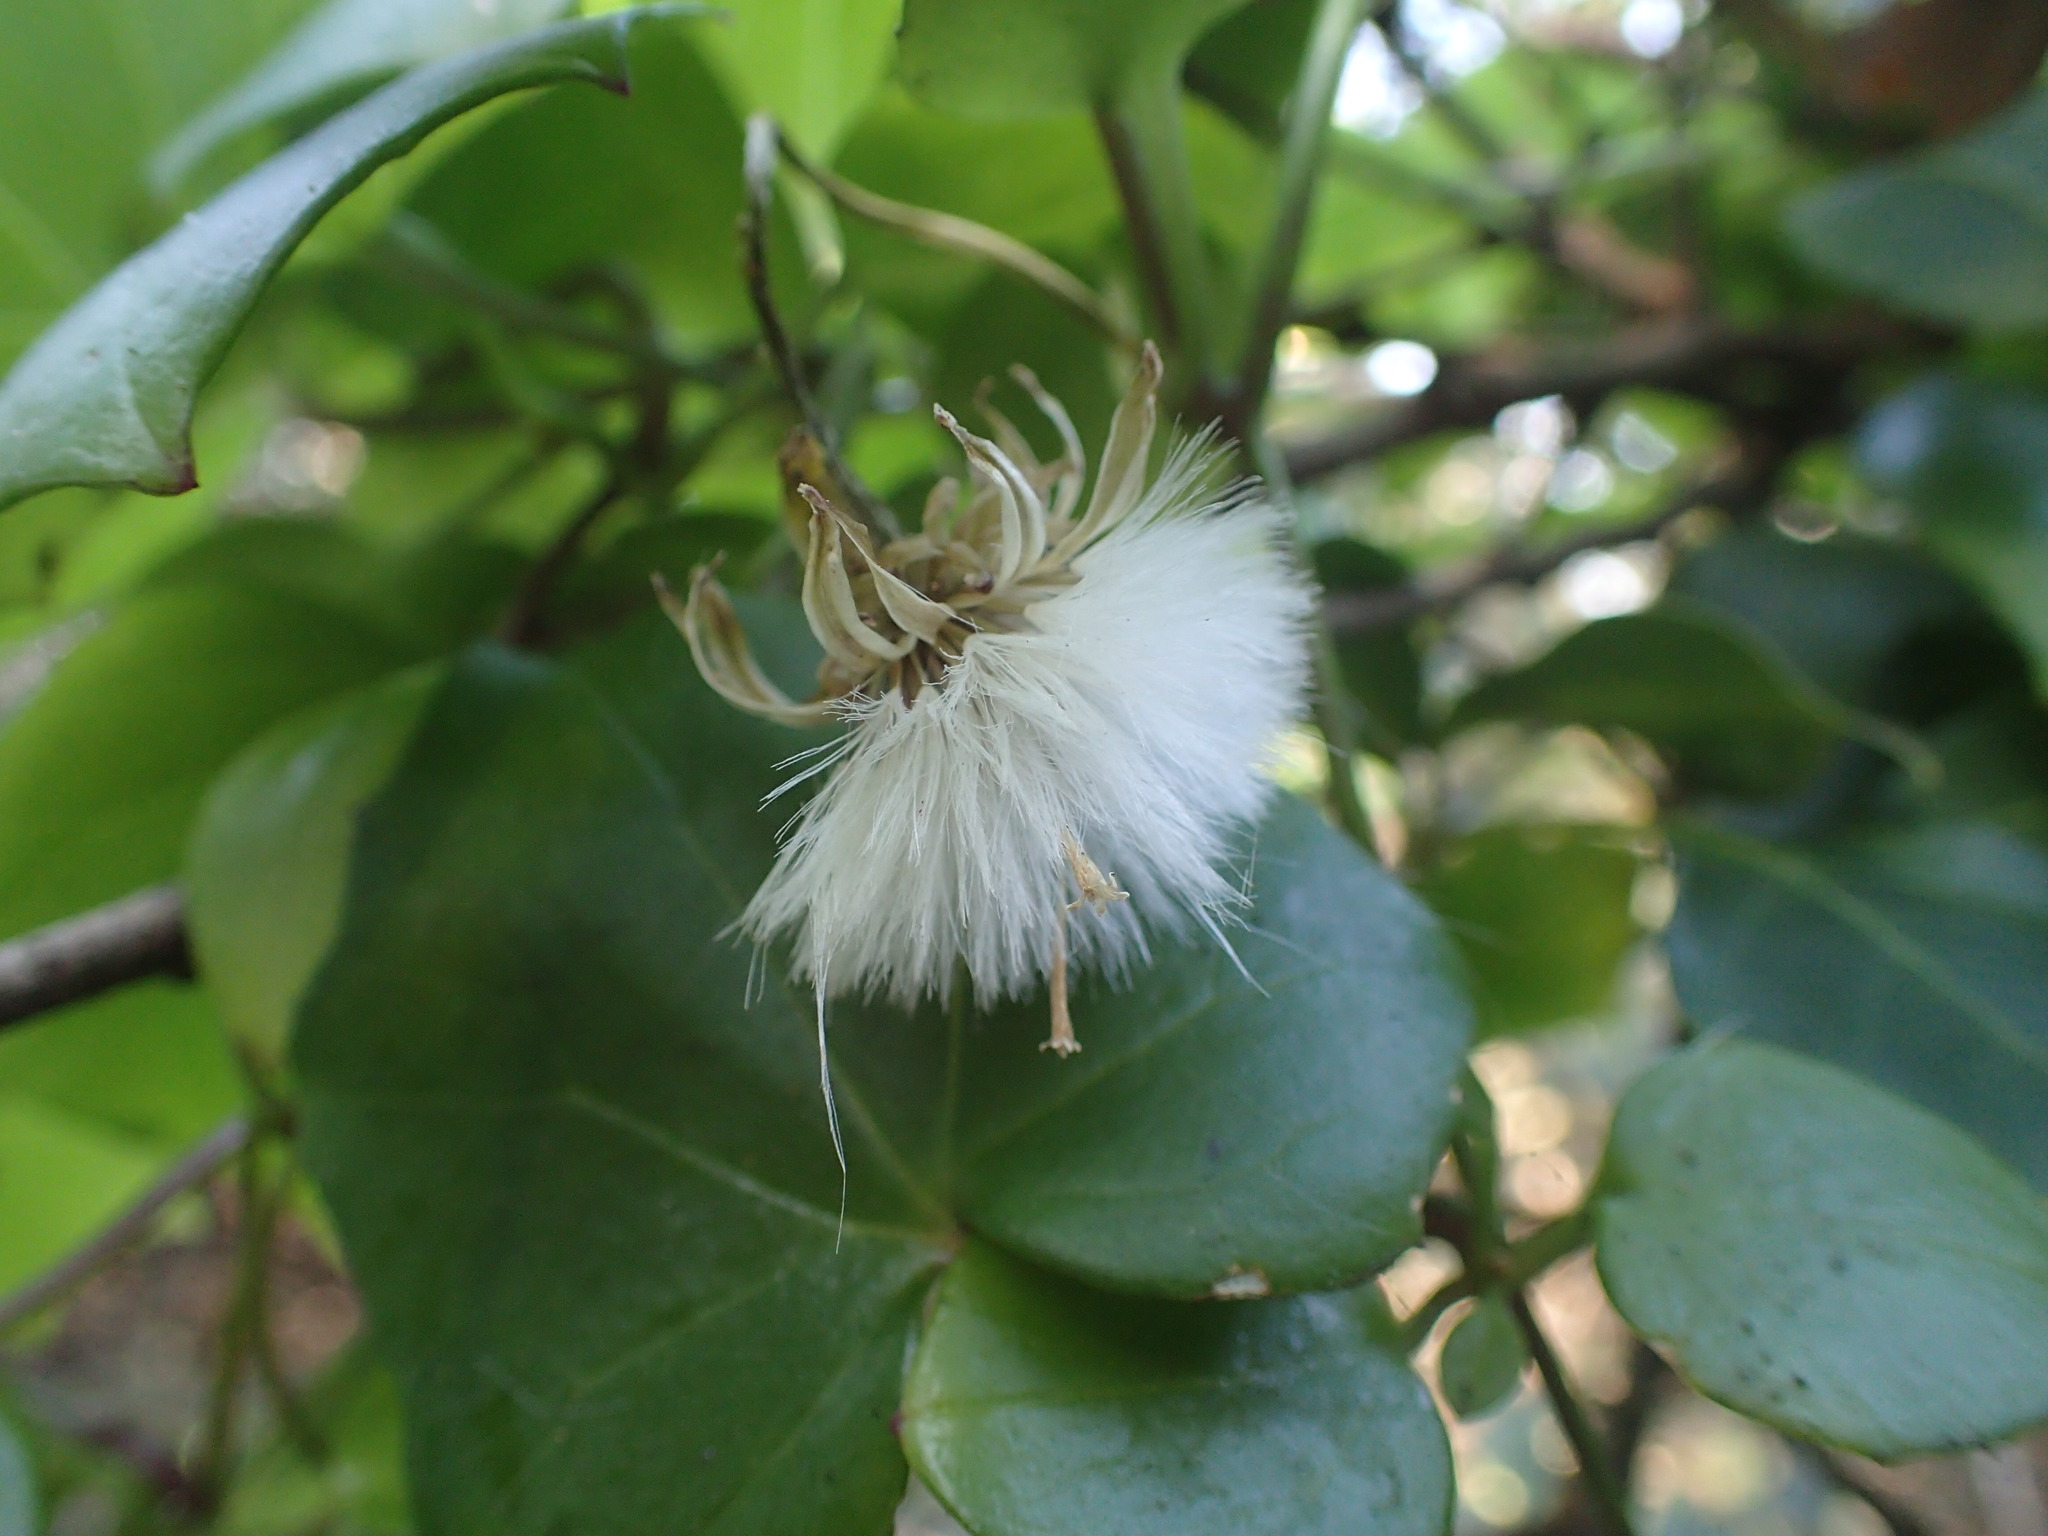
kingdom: Plantae
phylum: Tracheophyta
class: Magnoliopsida
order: Asterales
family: Asteraceae
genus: Senecio
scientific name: Senecio macroglossoides
